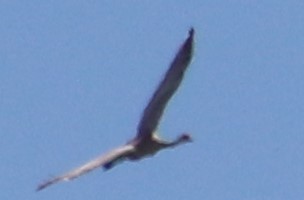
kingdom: Animalia
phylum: Chordata
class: Aves
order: Gruiformes
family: Gruidae
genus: Grus
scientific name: Grus canadensis
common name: Sandhill crane
